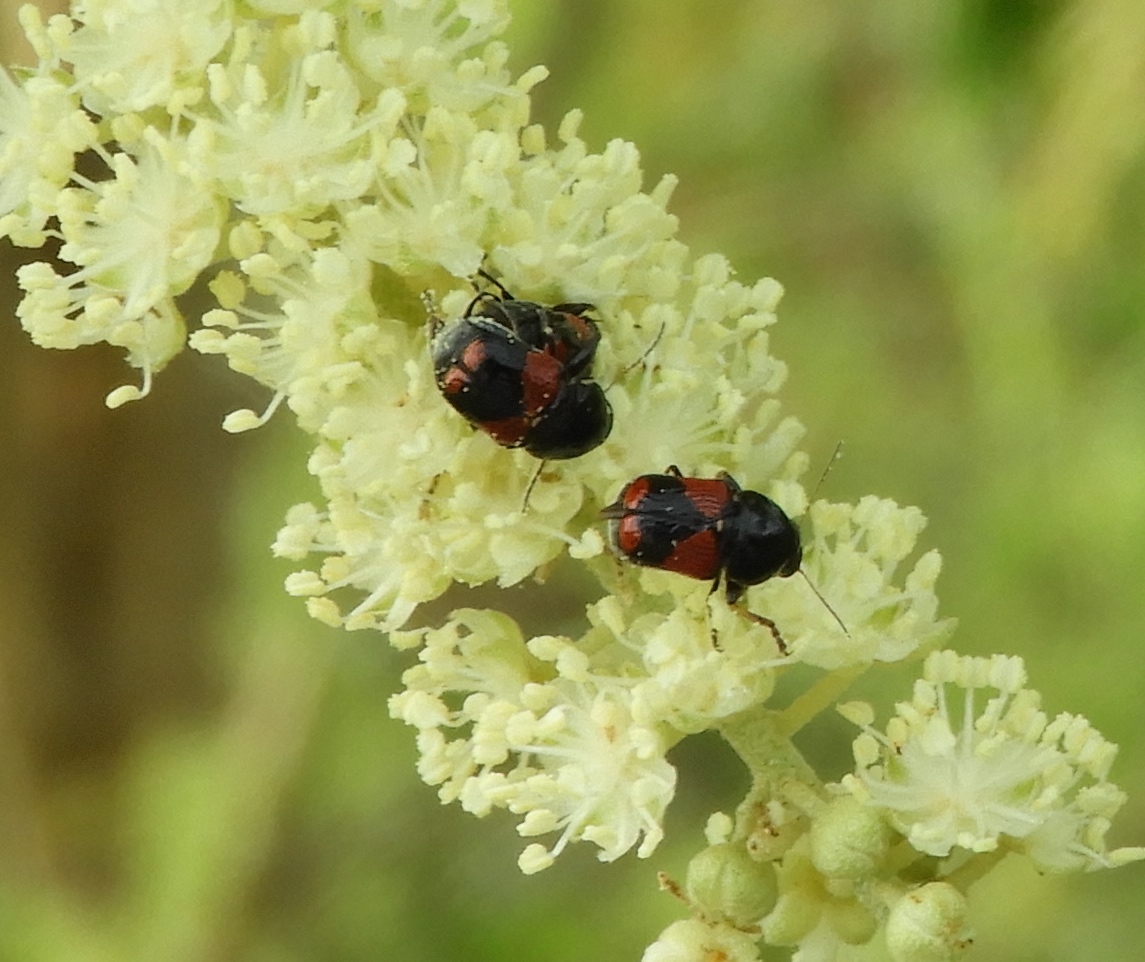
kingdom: Animalia
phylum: Arthropoda
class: Insecta
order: Coleoptera
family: Chrysomelidae
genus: Griburius
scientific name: Griburius albilabris
